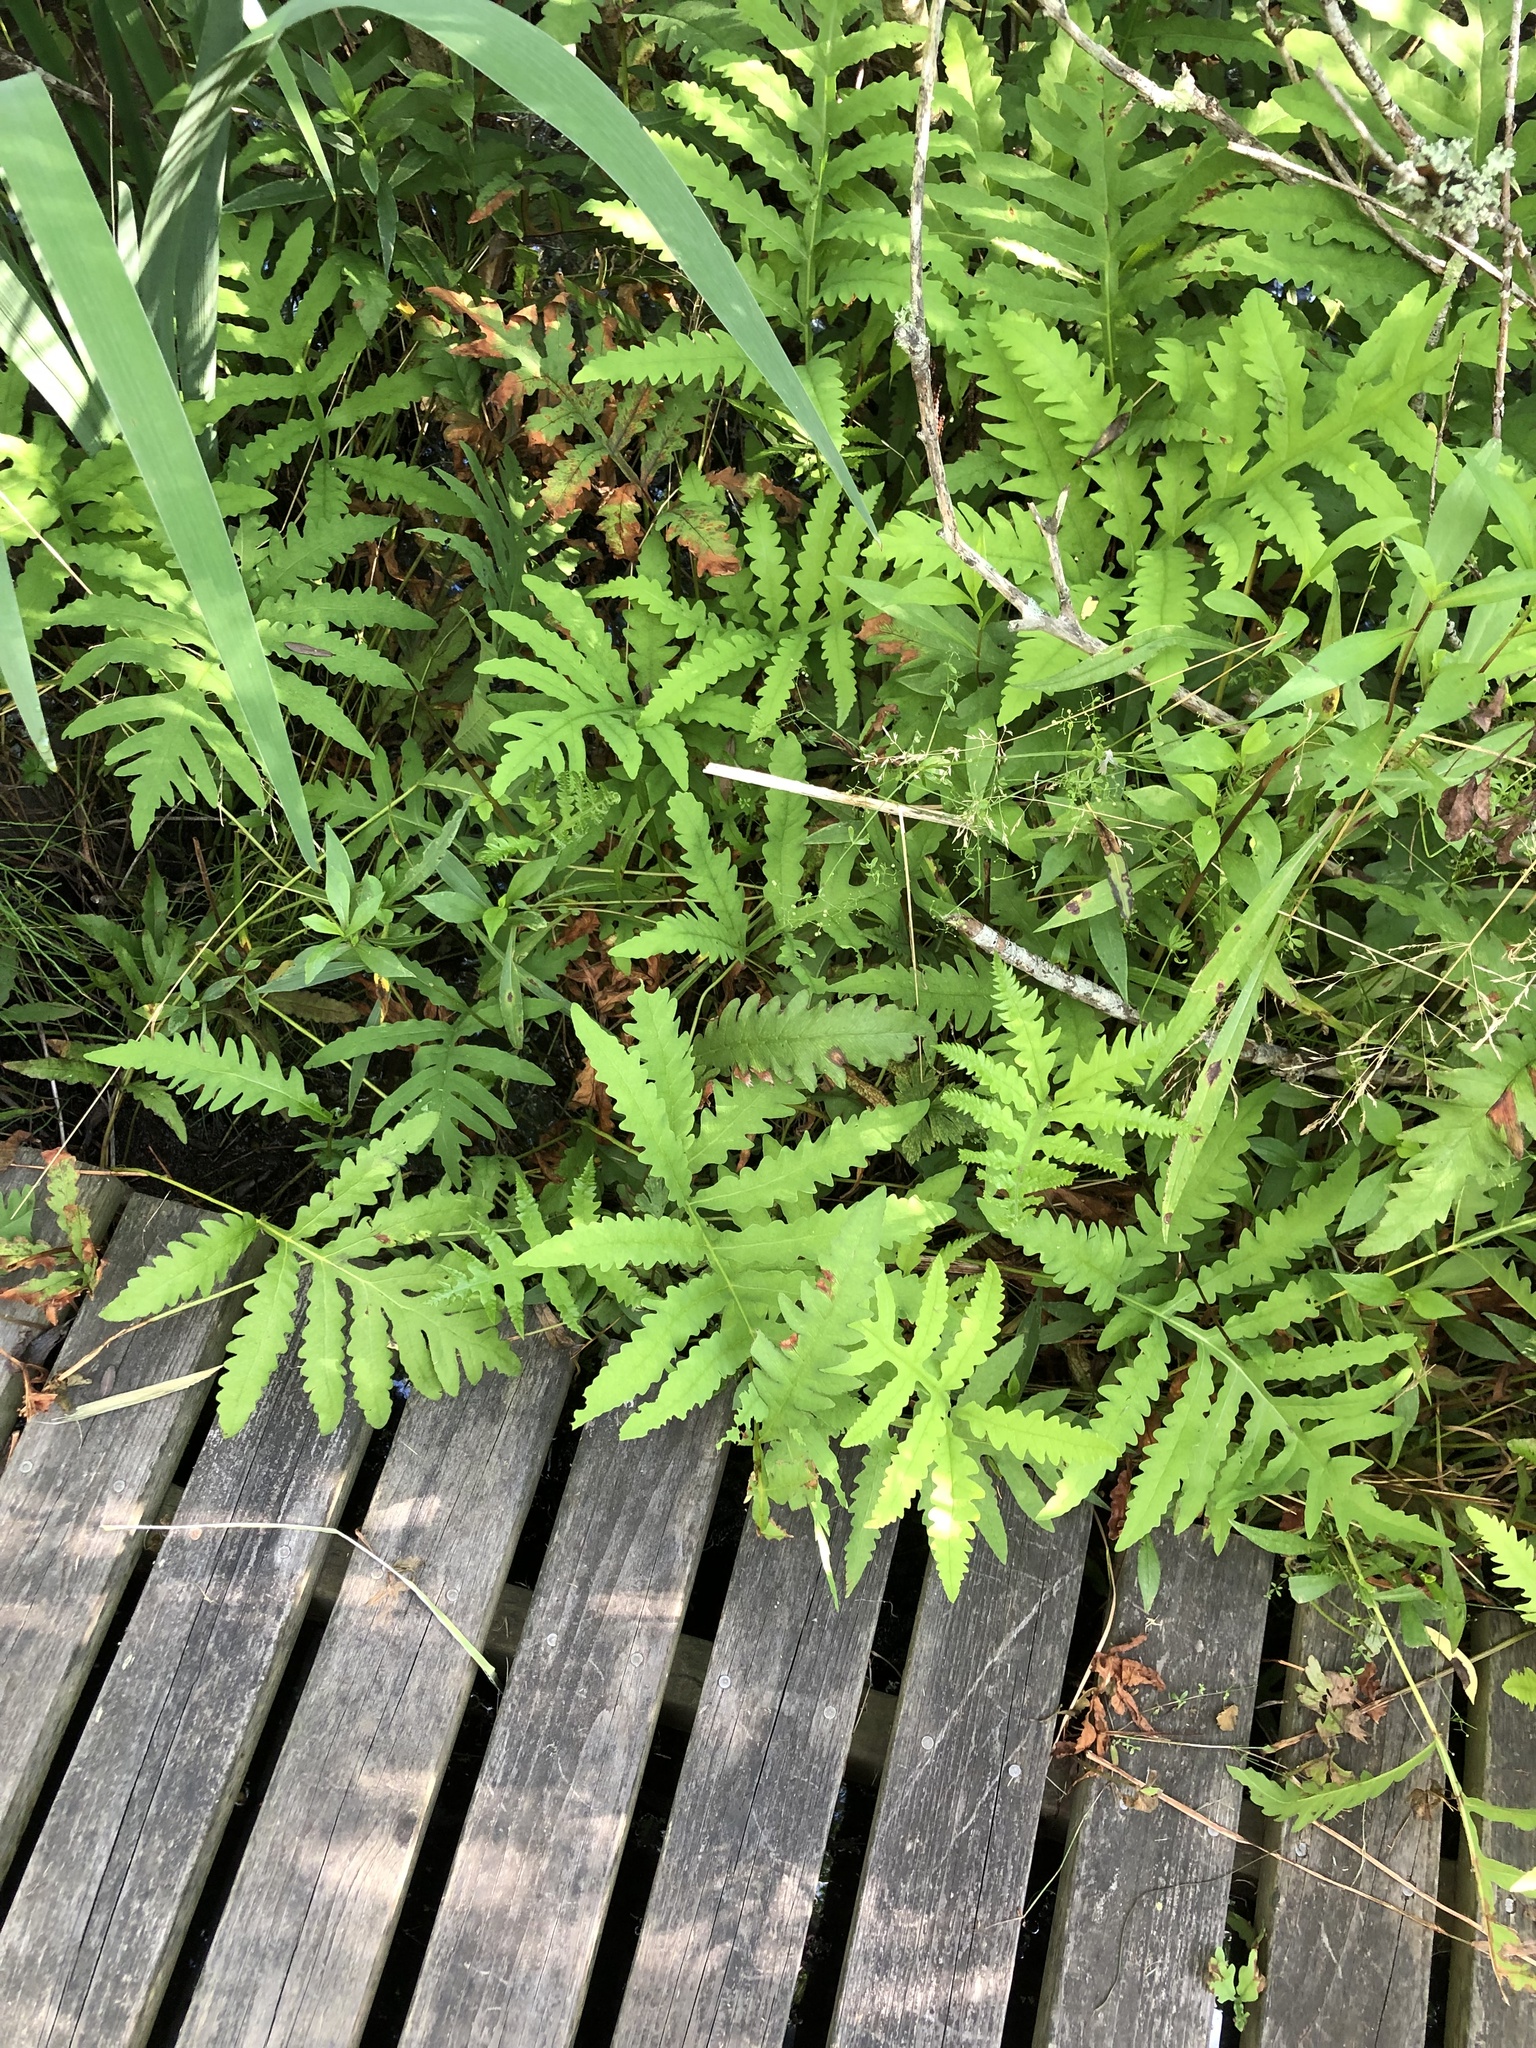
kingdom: Plantae
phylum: Tracheophyta
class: Polypodiopsida
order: Polypodiales
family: Onocleaceae
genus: Onoclea
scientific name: Onoclea sensibilis
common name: Sensitive fern
